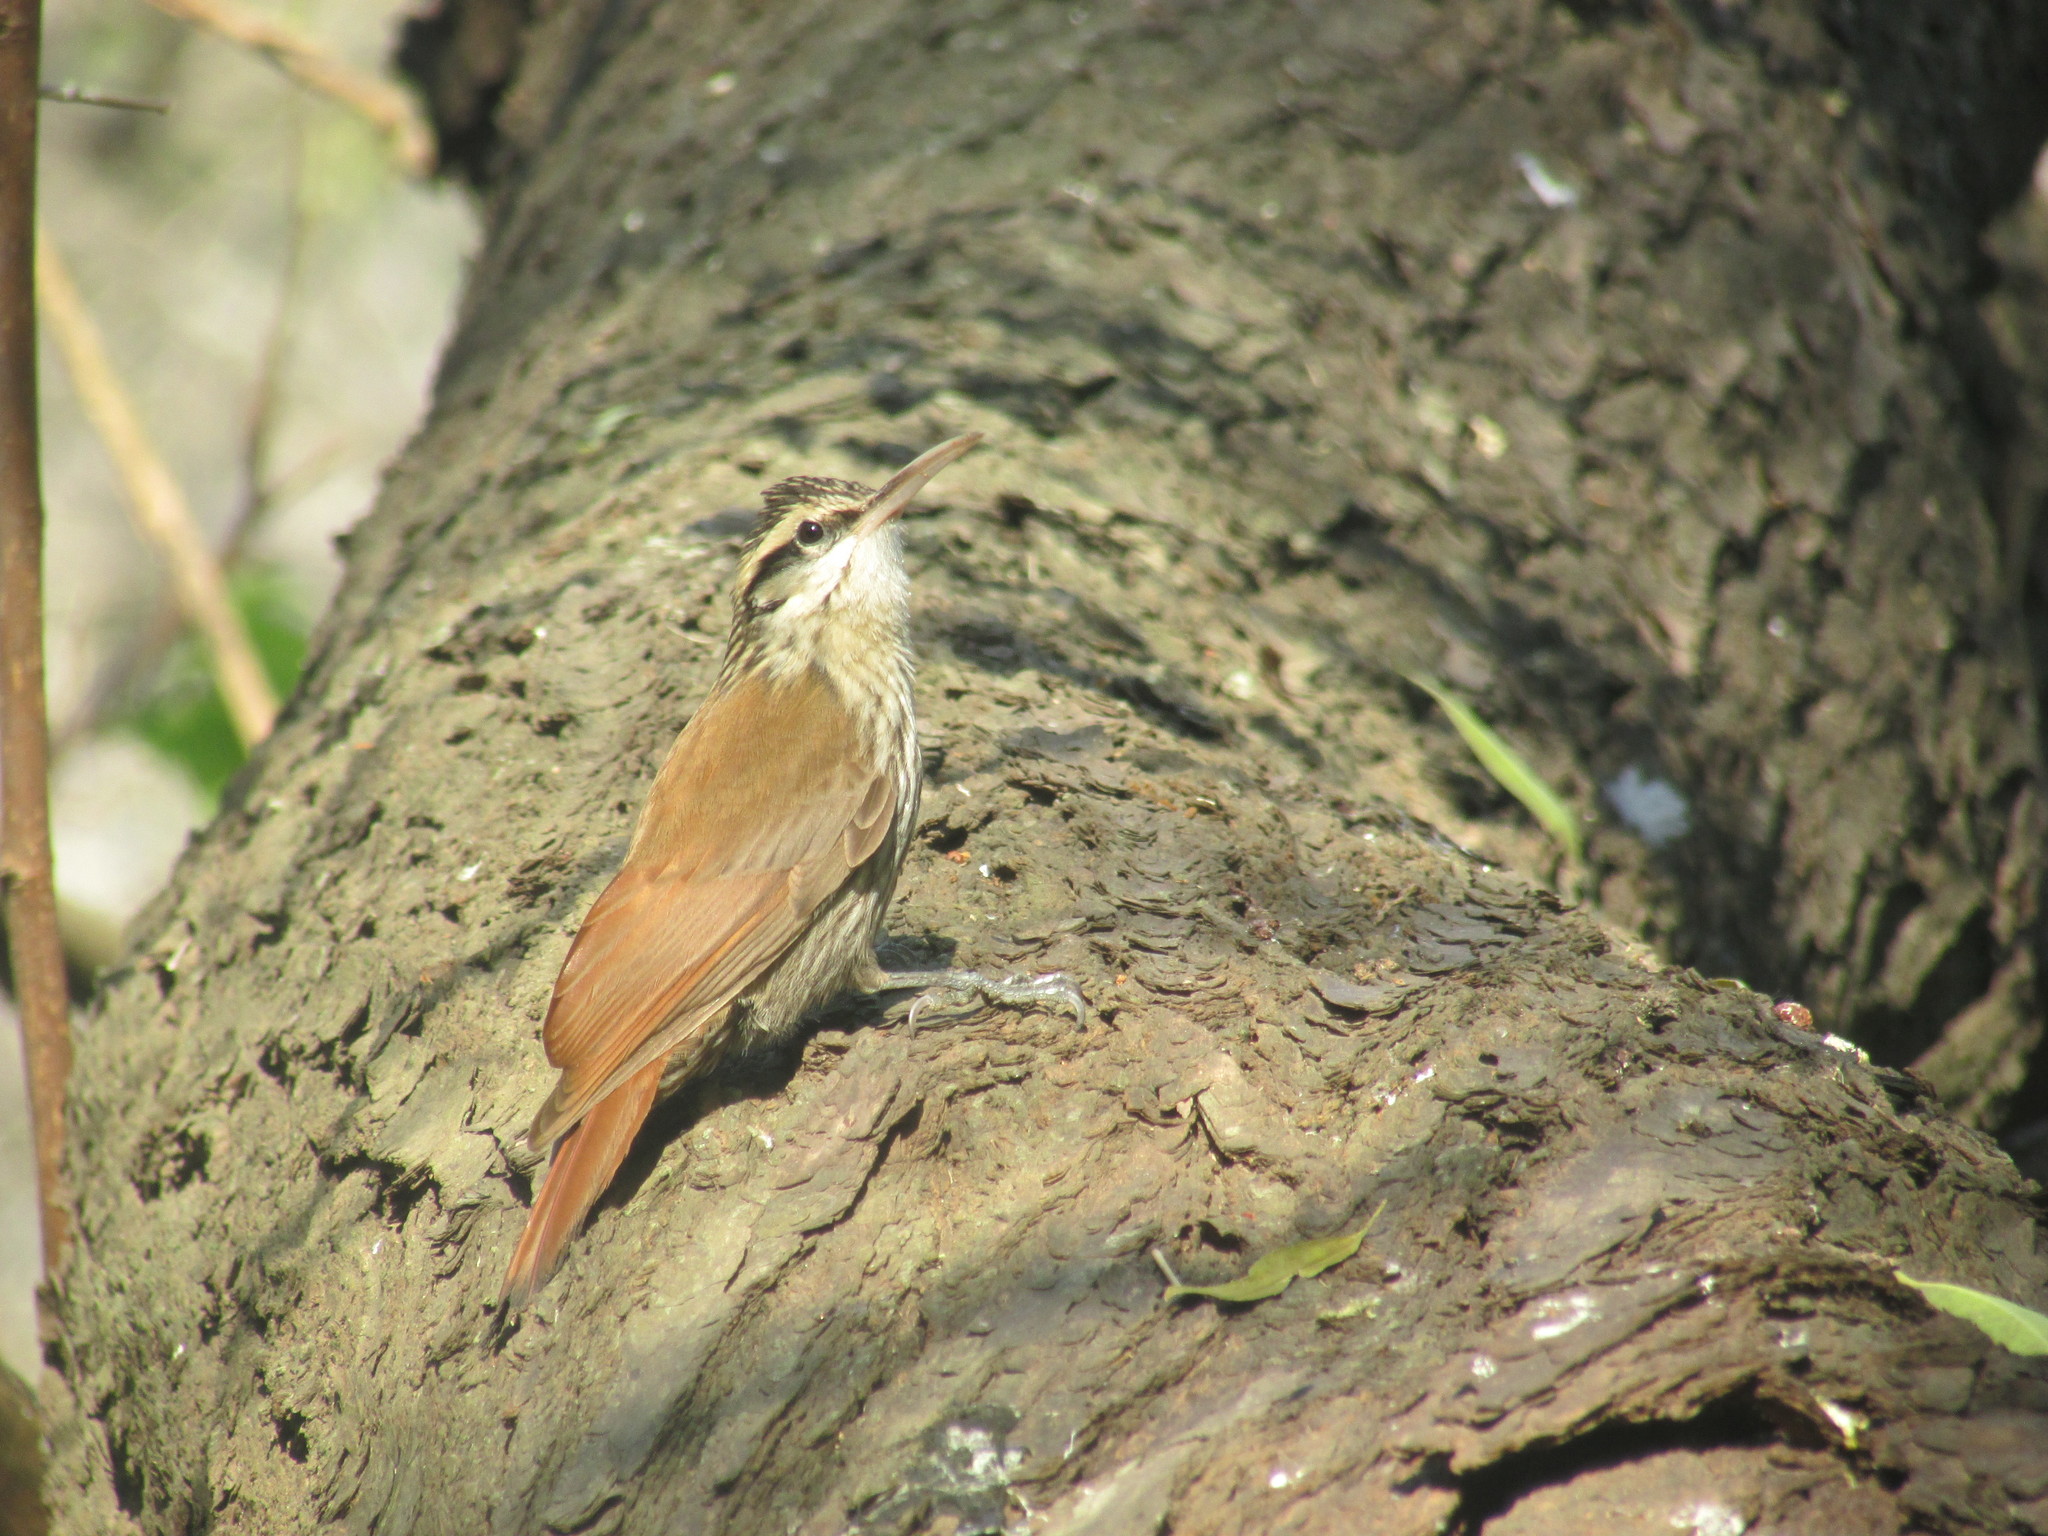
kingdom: Animalia
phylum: Chordata
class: Aves
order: Passeriformes
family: Furnariidae
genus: Lepidocolaptes
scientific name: Lepidocolaptes angustirostris
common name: Narrow-billed woodcreeper
